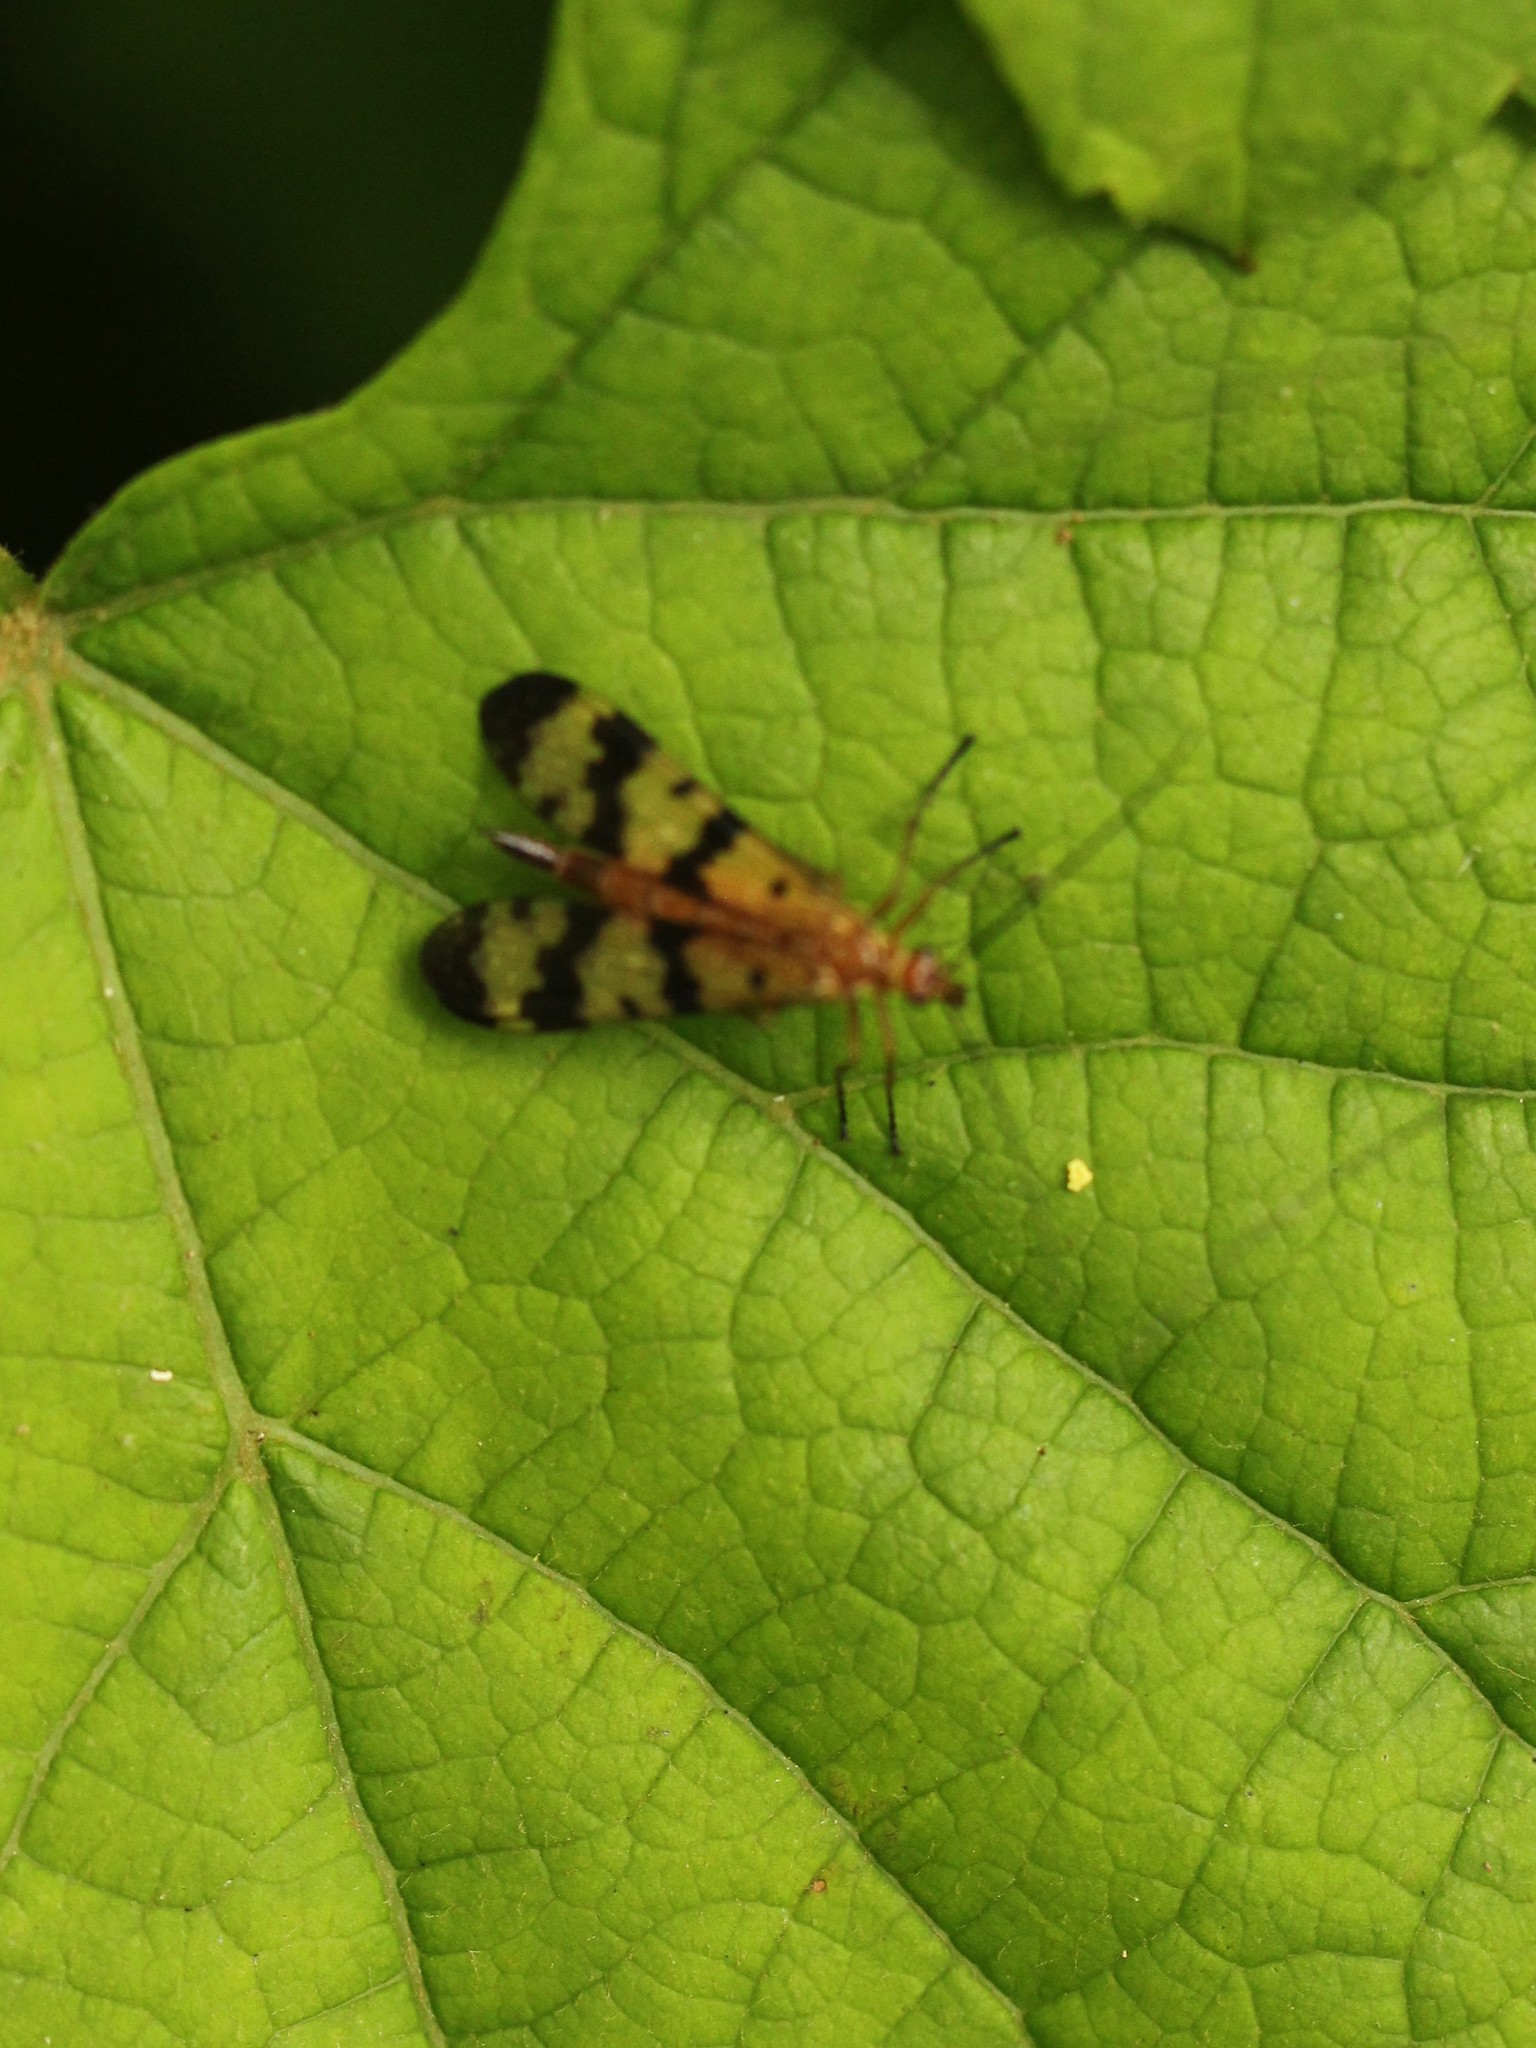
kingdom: Animalia
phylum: Arthropoda
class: Insecta
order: Mecoptera
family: Panorpidae
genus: Panorpa
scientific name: Panorpa helena
